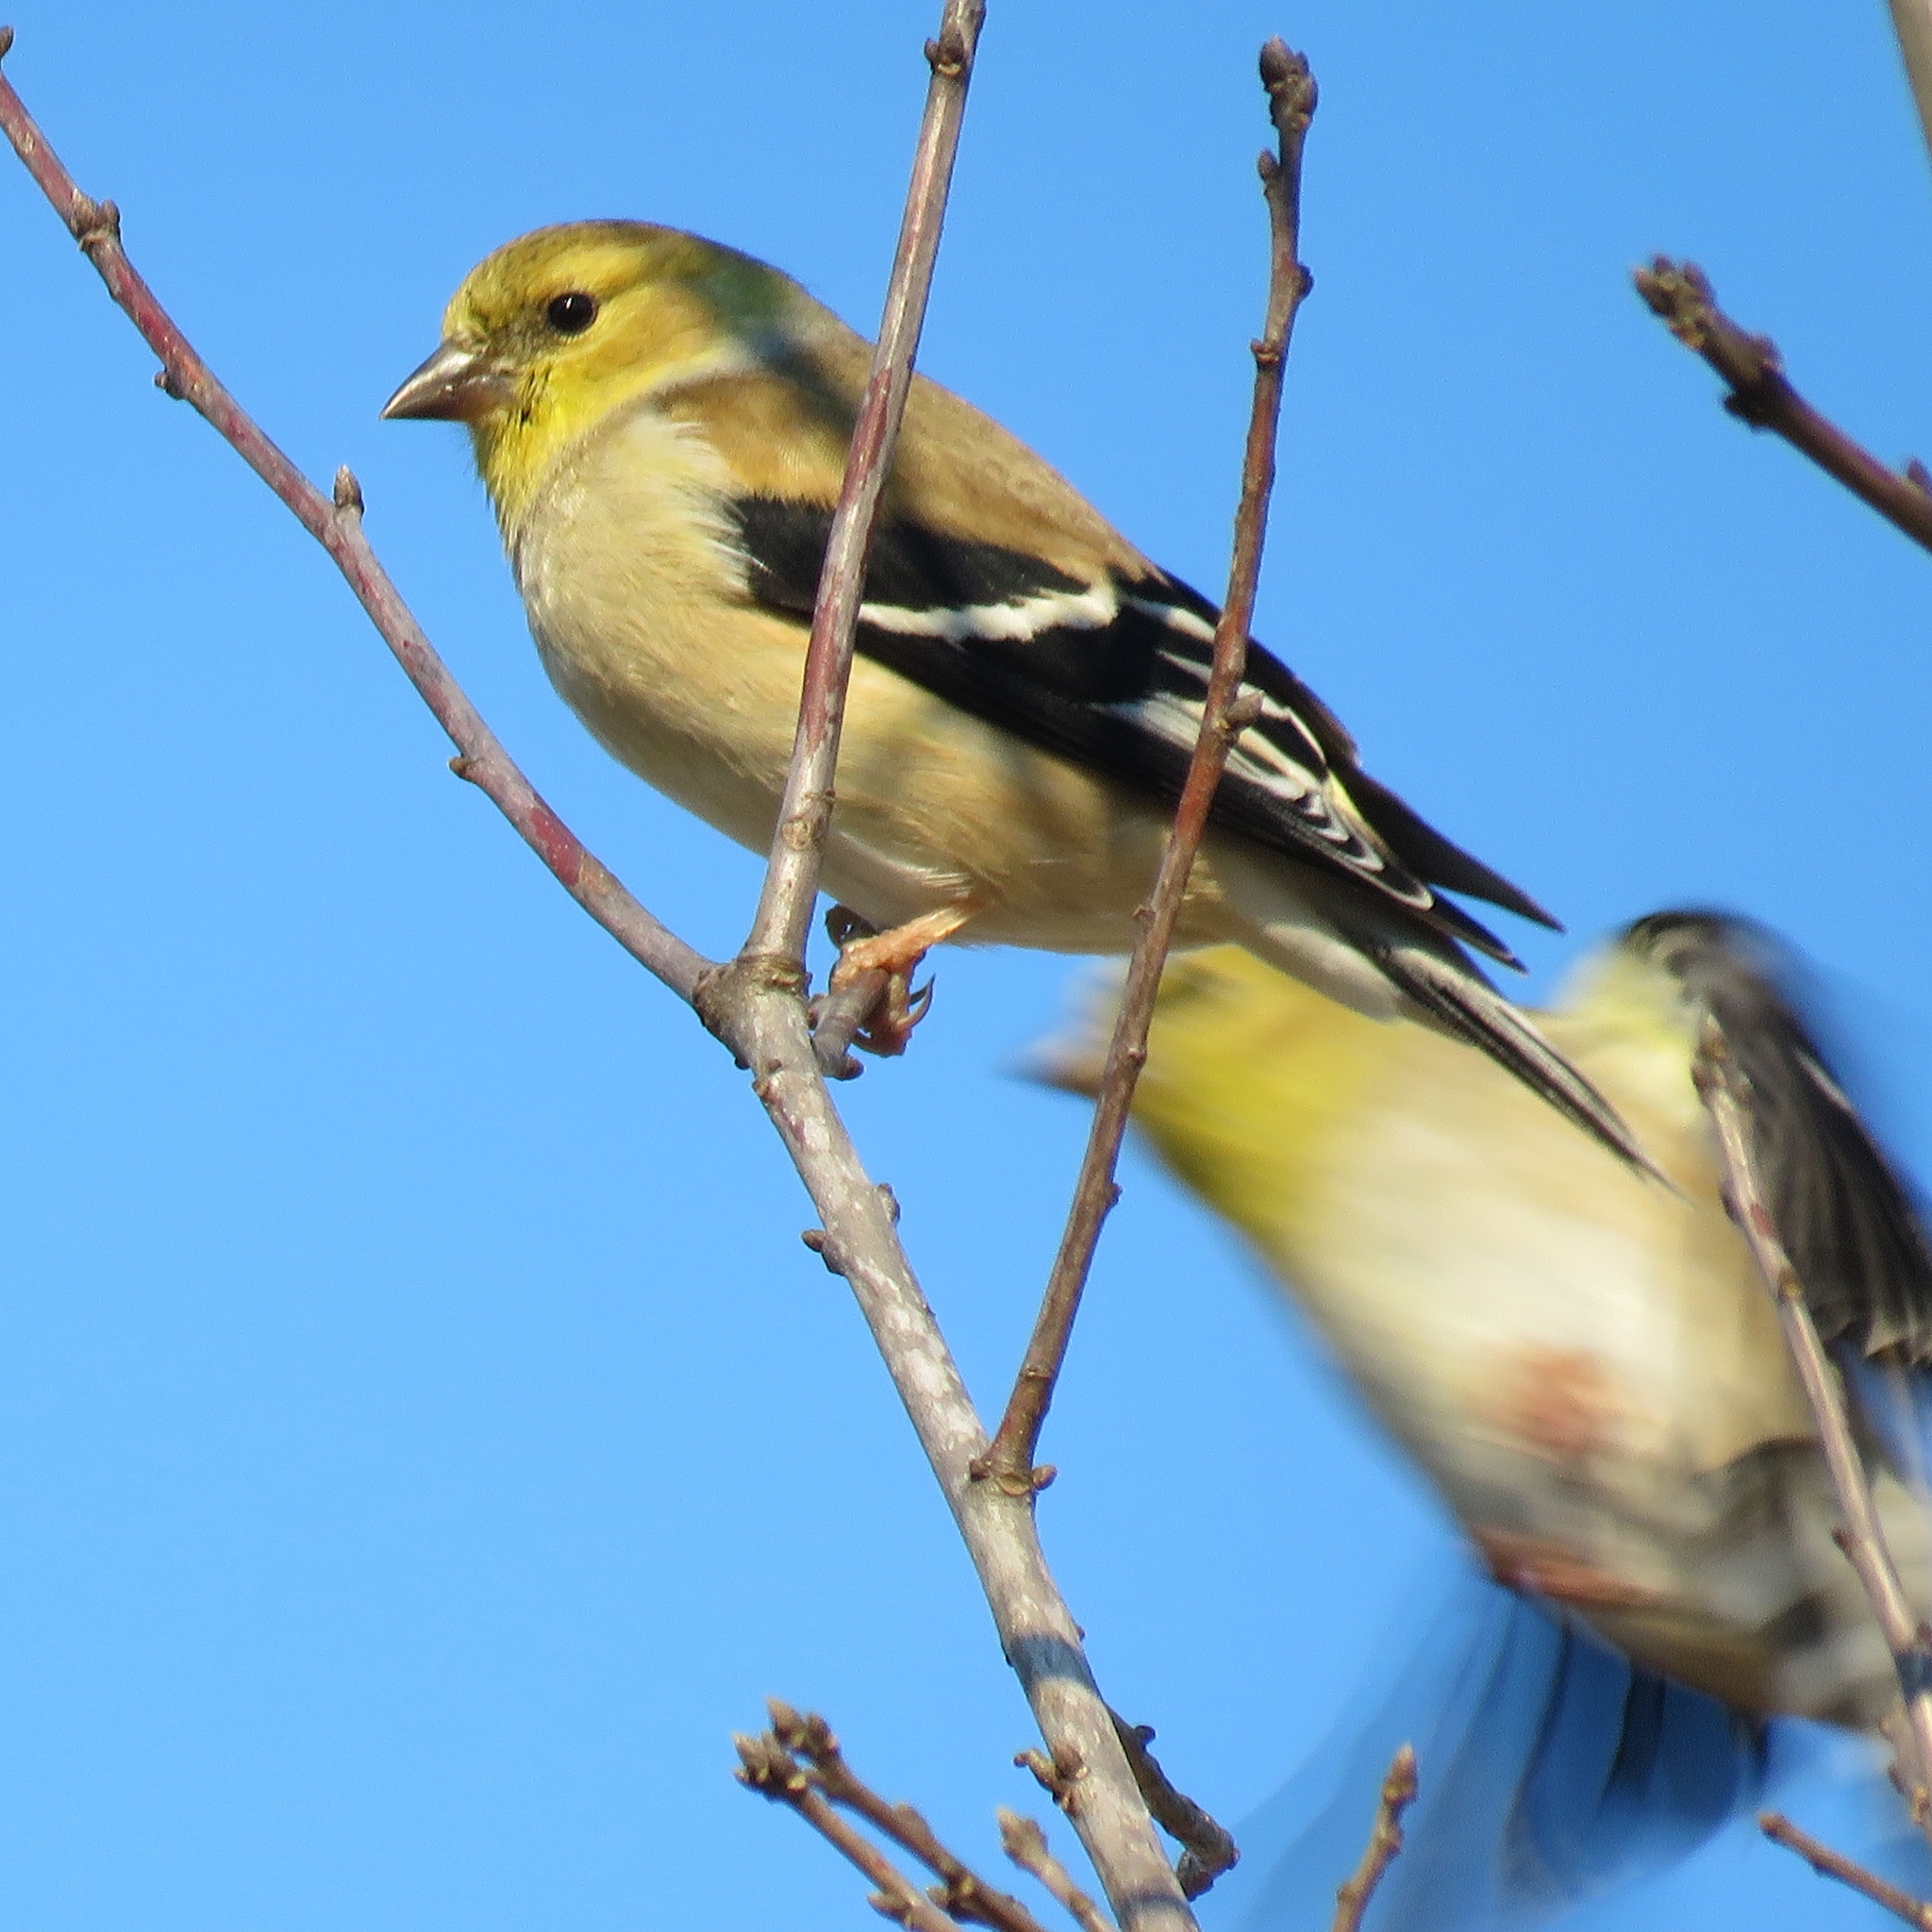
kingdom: Animalia
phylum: Chordata
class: Aves
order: Passeriformes
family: Fringillidae
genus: Spinus
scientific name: Spinus tristis
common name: American goldfinch
